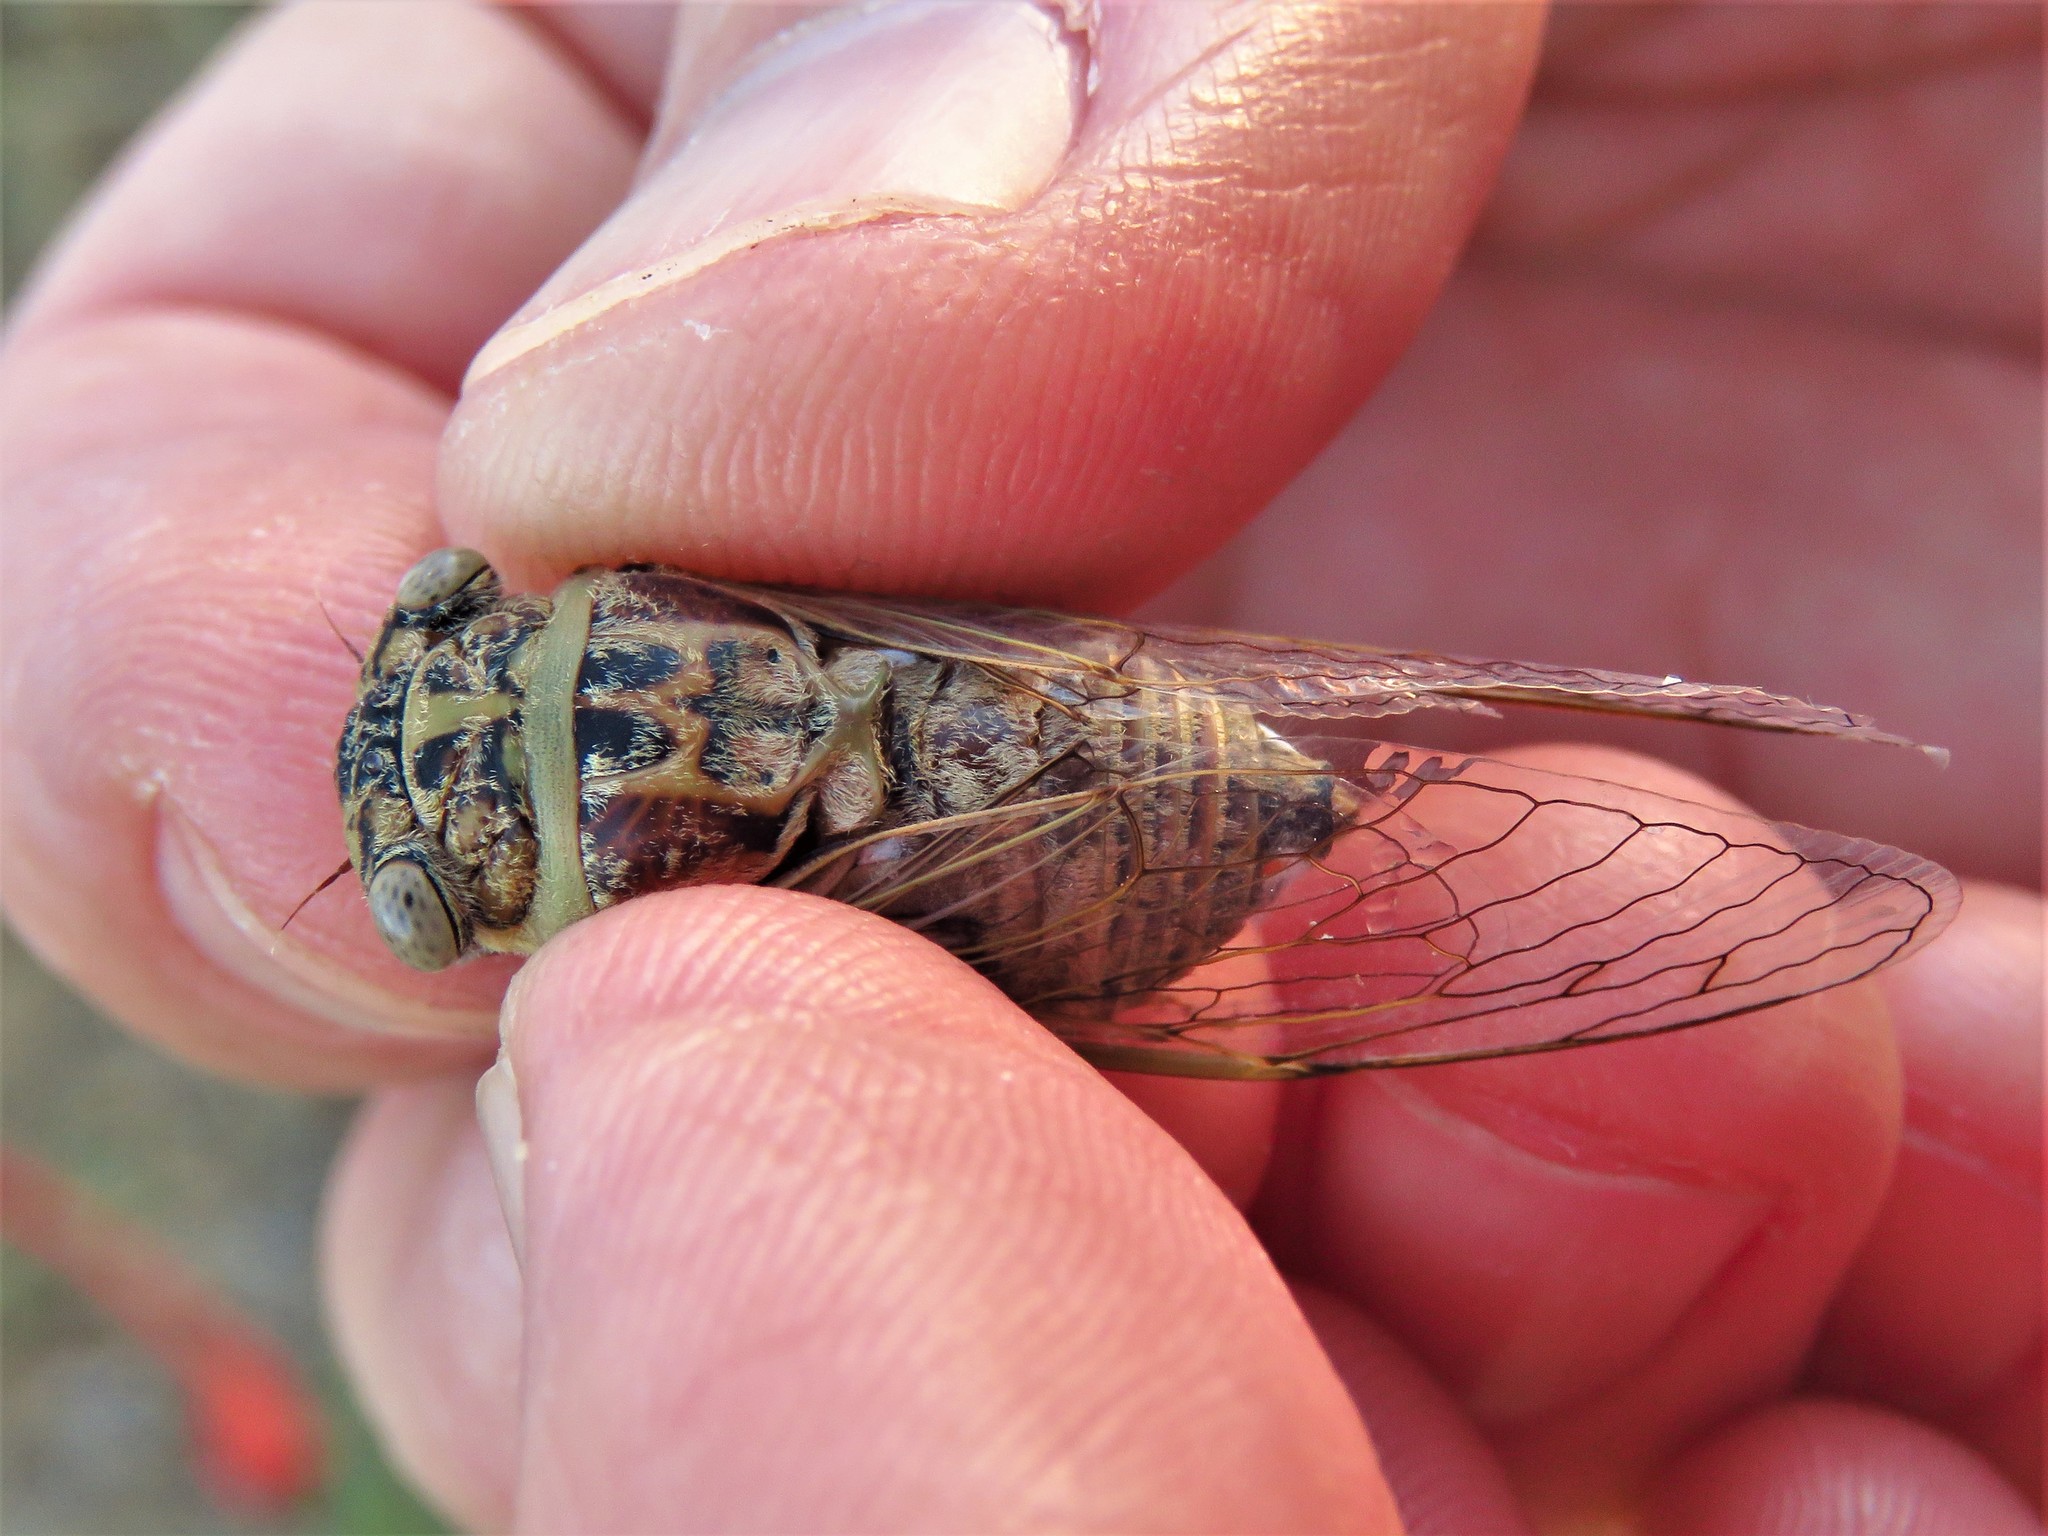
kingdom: Animalia
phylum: Arthropoda
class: Insecta
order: Hemiptera
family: Cicadidae
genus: Diceroprocta
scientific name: Diceroprocta texana
